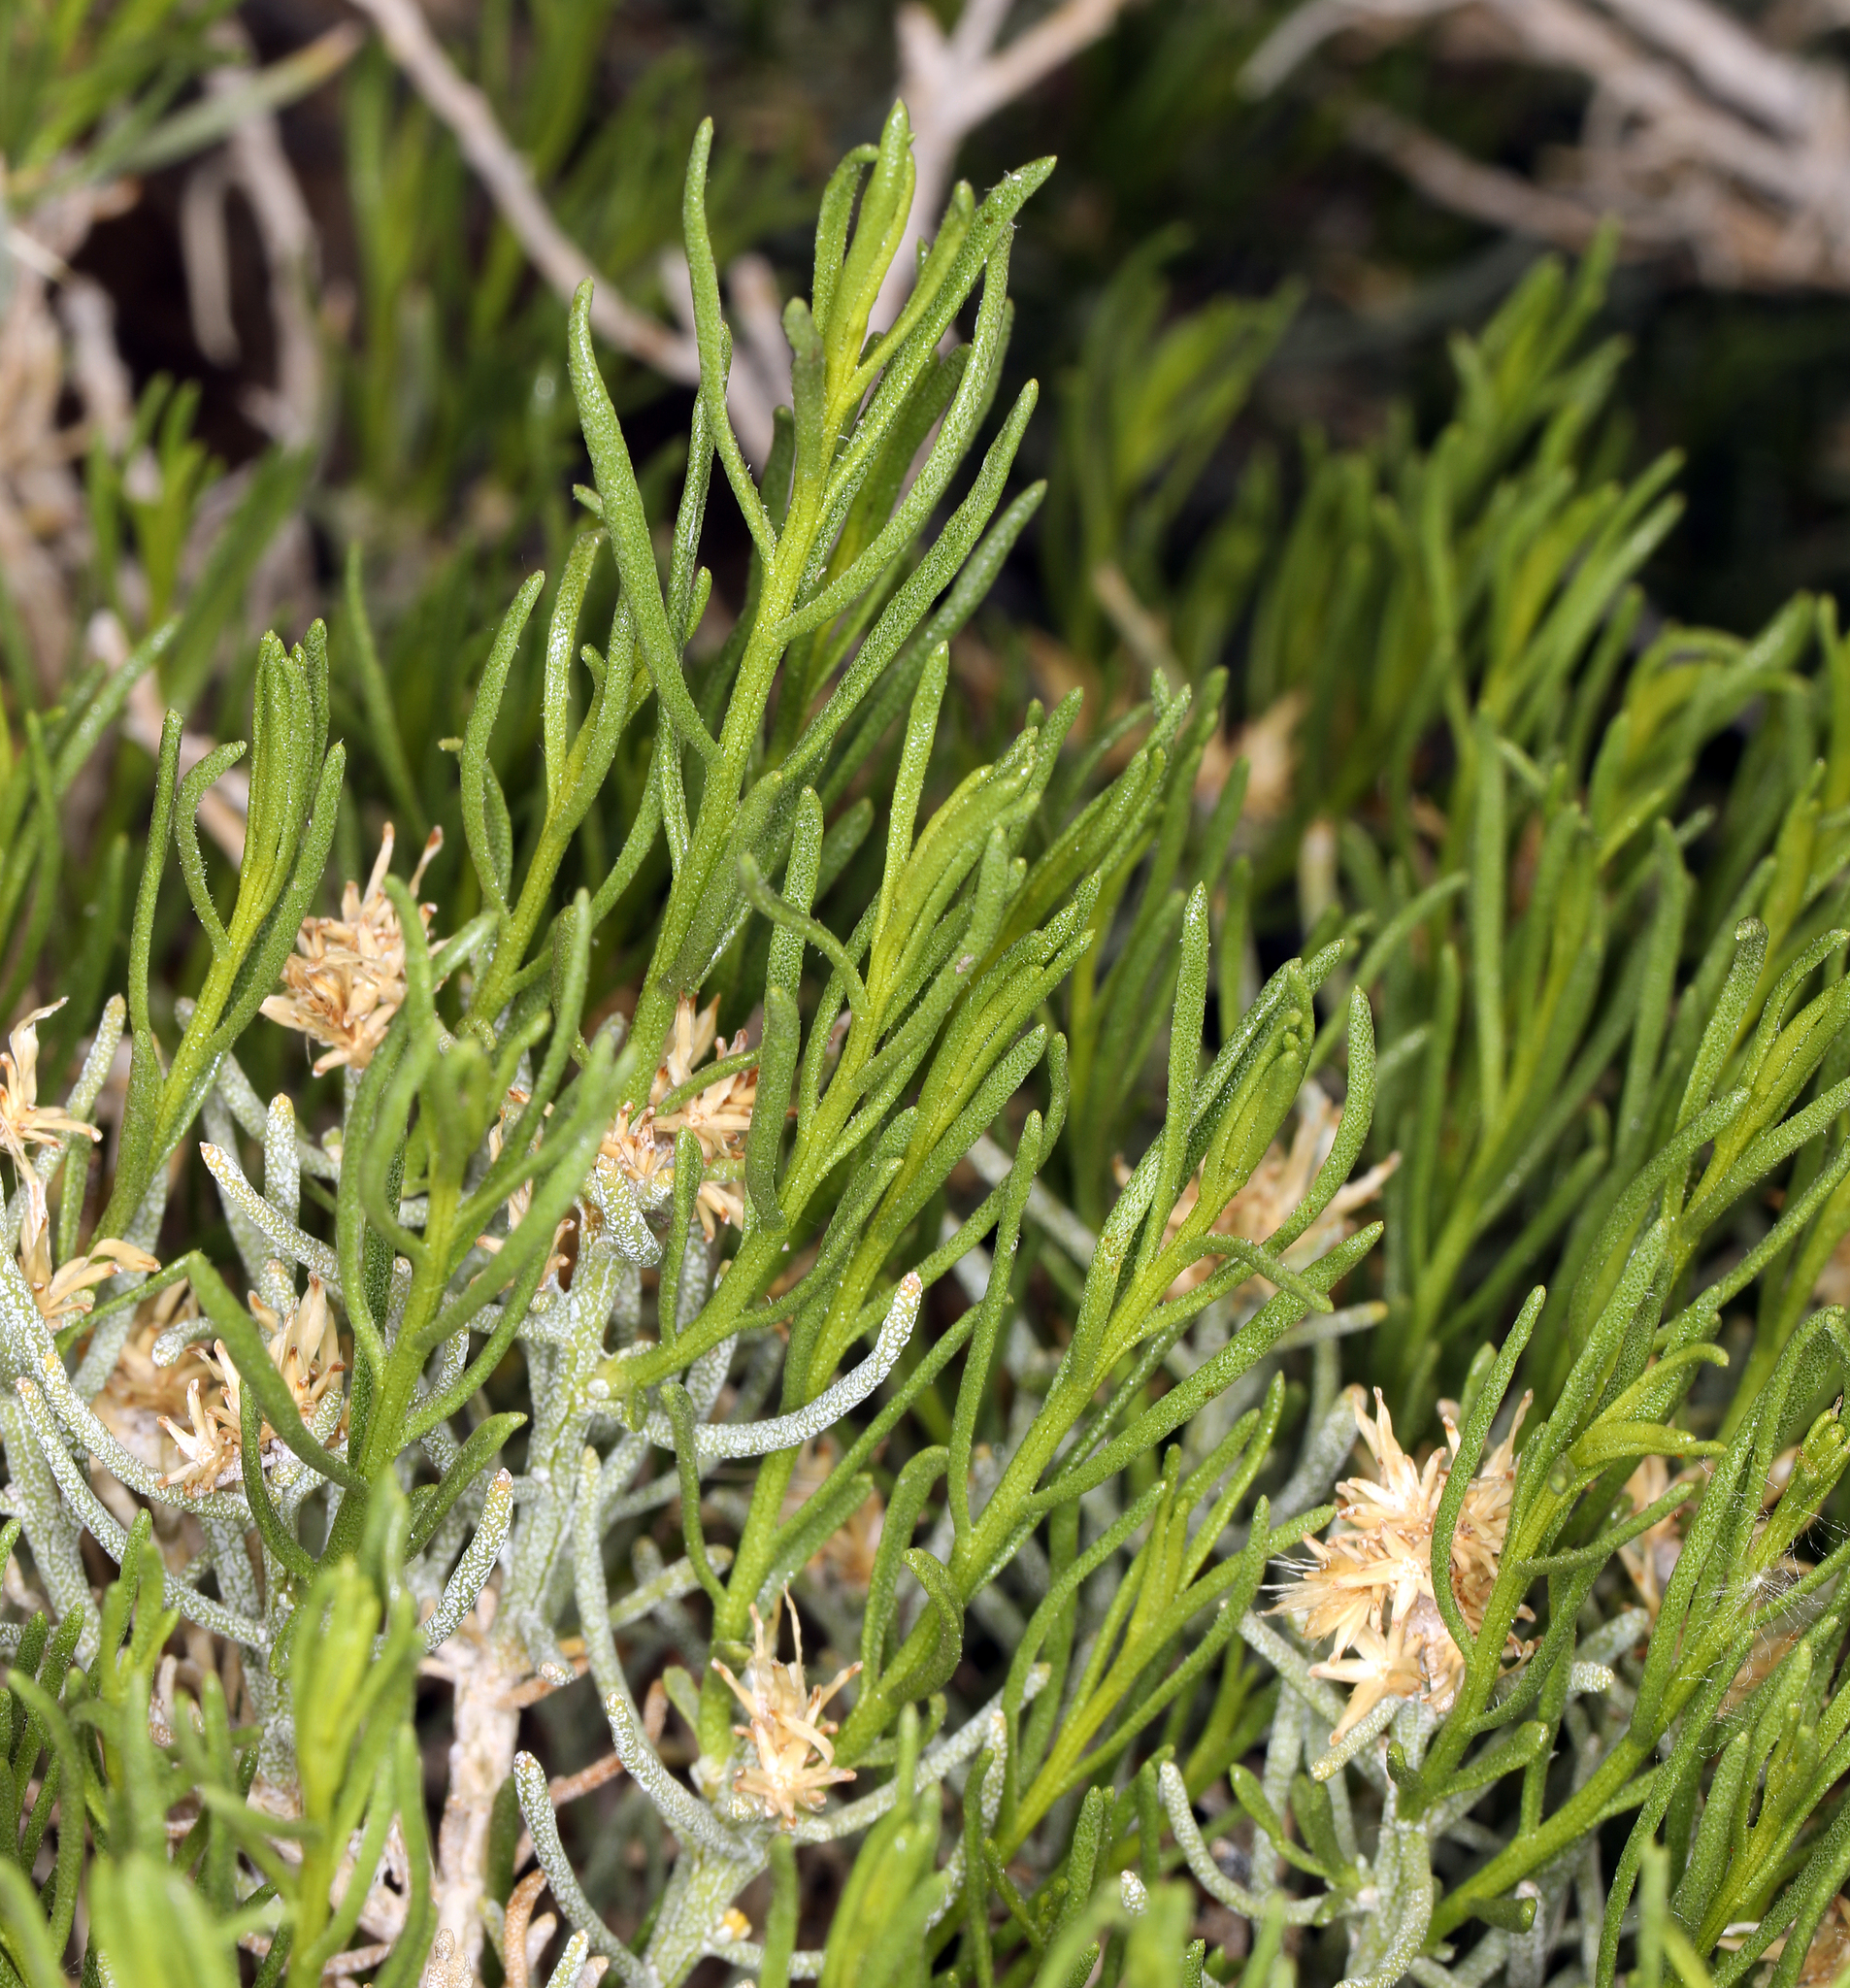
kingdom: Plantae
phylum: Tracheophyta
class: Magnoliopsida
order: Asterales
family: Asteraceae
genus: Ericameria
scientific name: Ericameria teretifolia
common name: Round-leaf rabbitbrush
